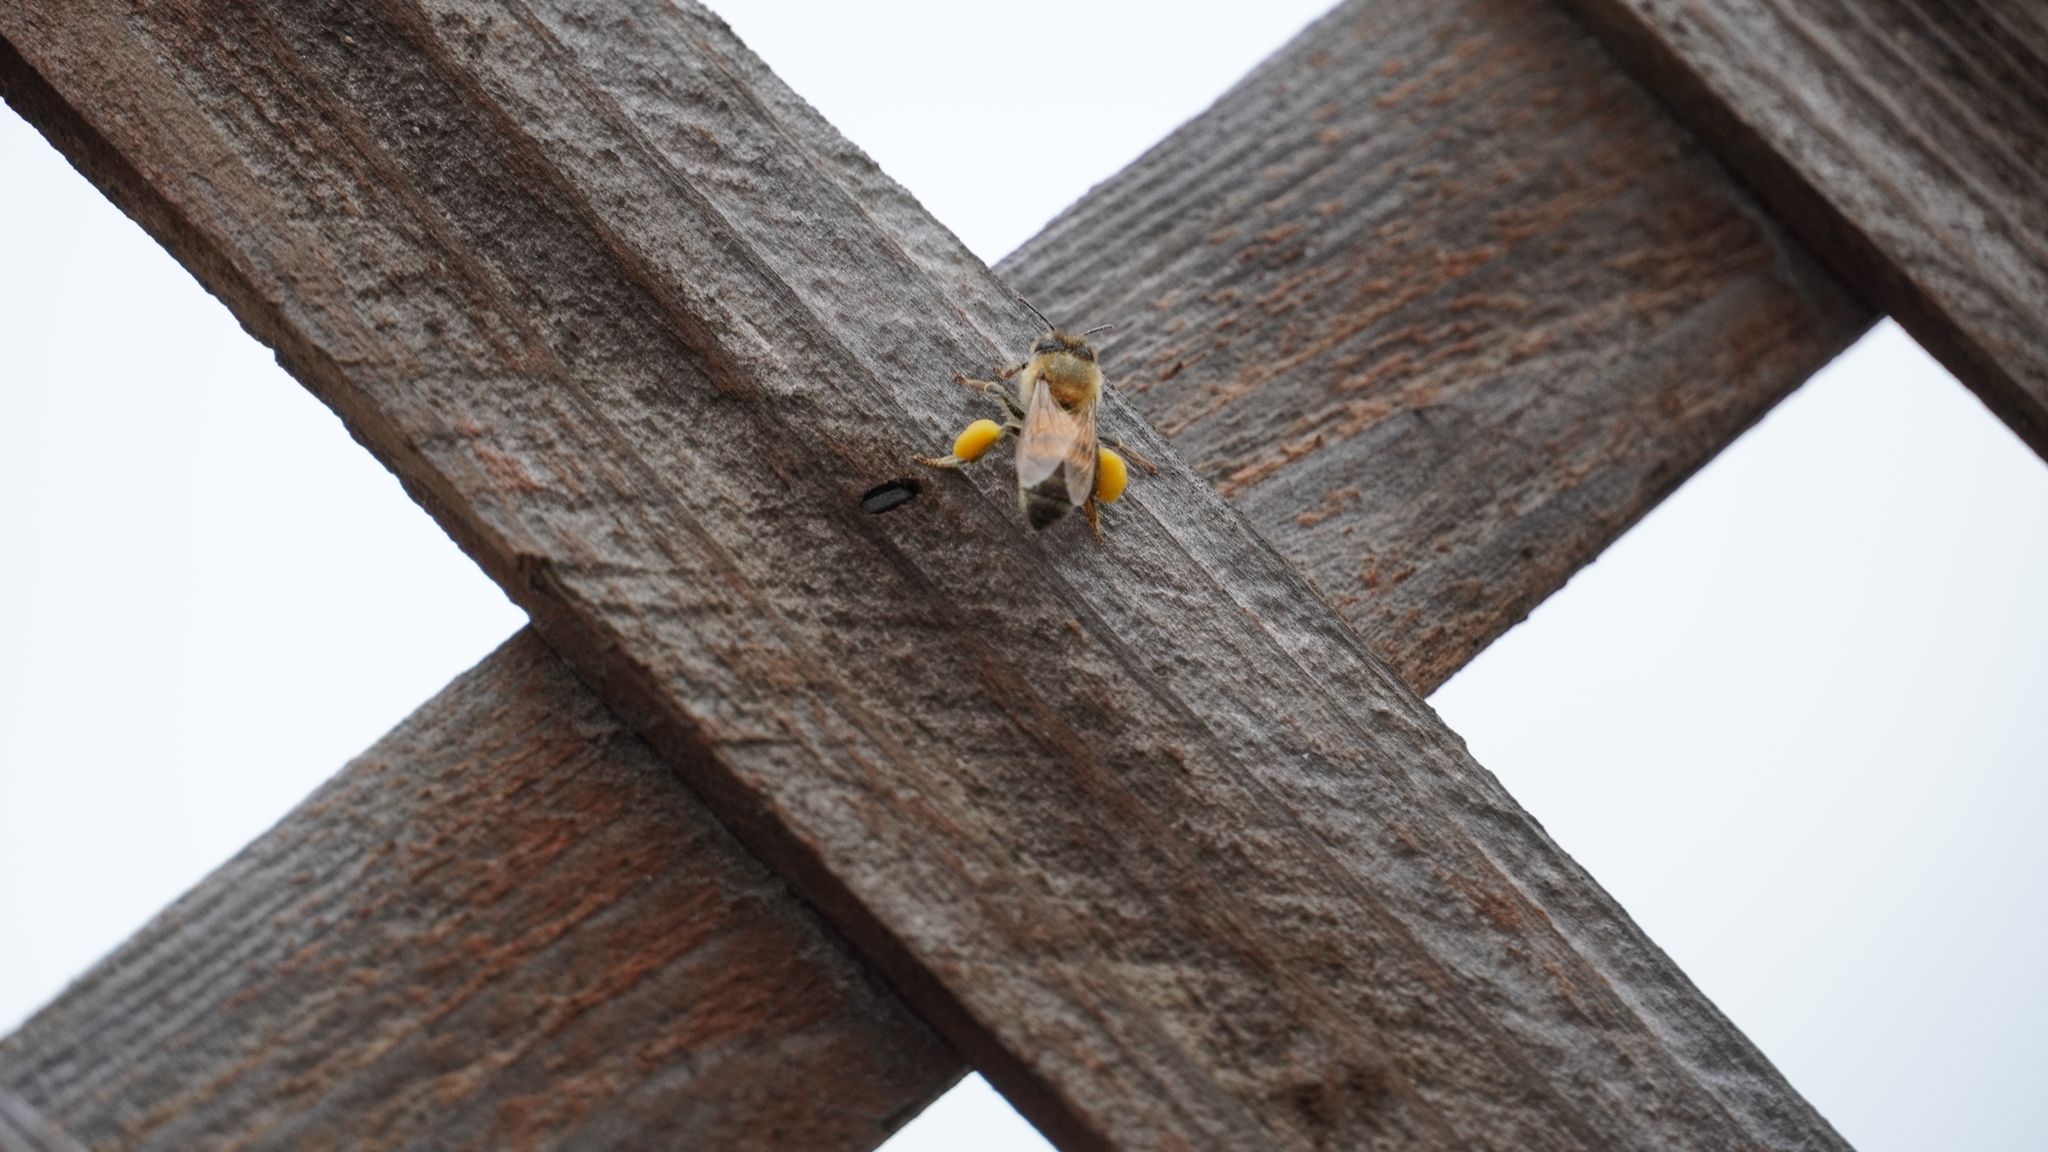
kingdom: Animalia
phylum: Arthropoda
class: Insecta
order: Hymenoptera
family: Apidae
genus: Apis
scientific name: Apis mellifera
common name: Honey bee
